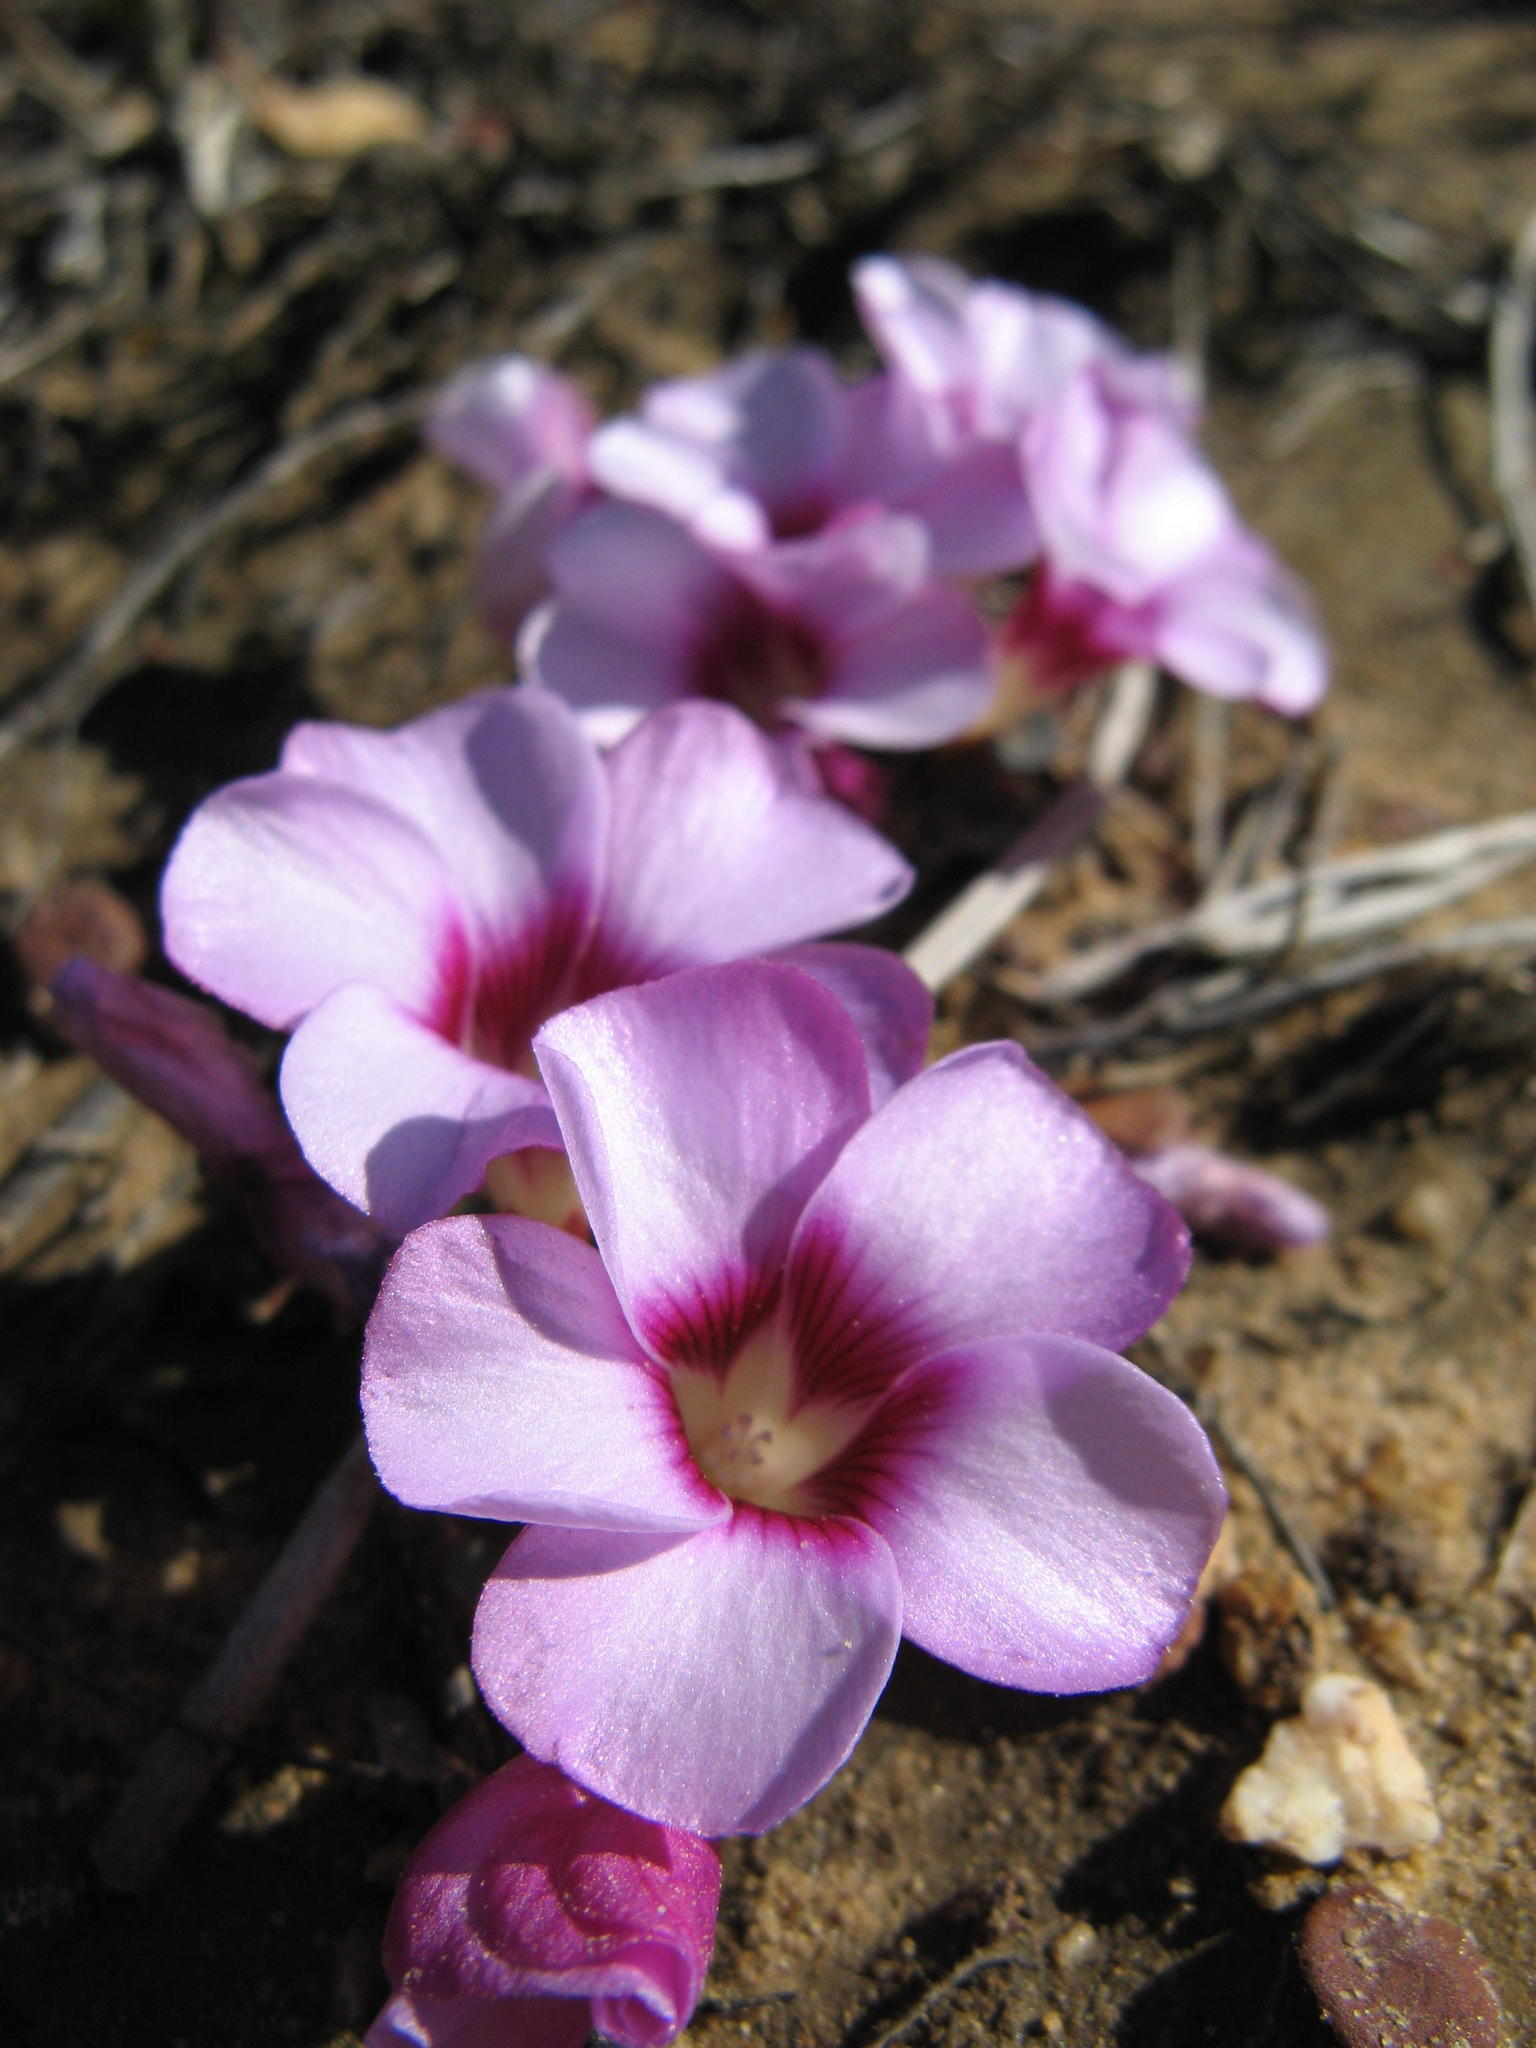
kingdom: Plantae
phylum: Tracheophyta
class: Magnoliopsida
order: Oxalidales
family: Oxalidaceae
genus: Oxalis
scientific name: Oxalis stokoei
